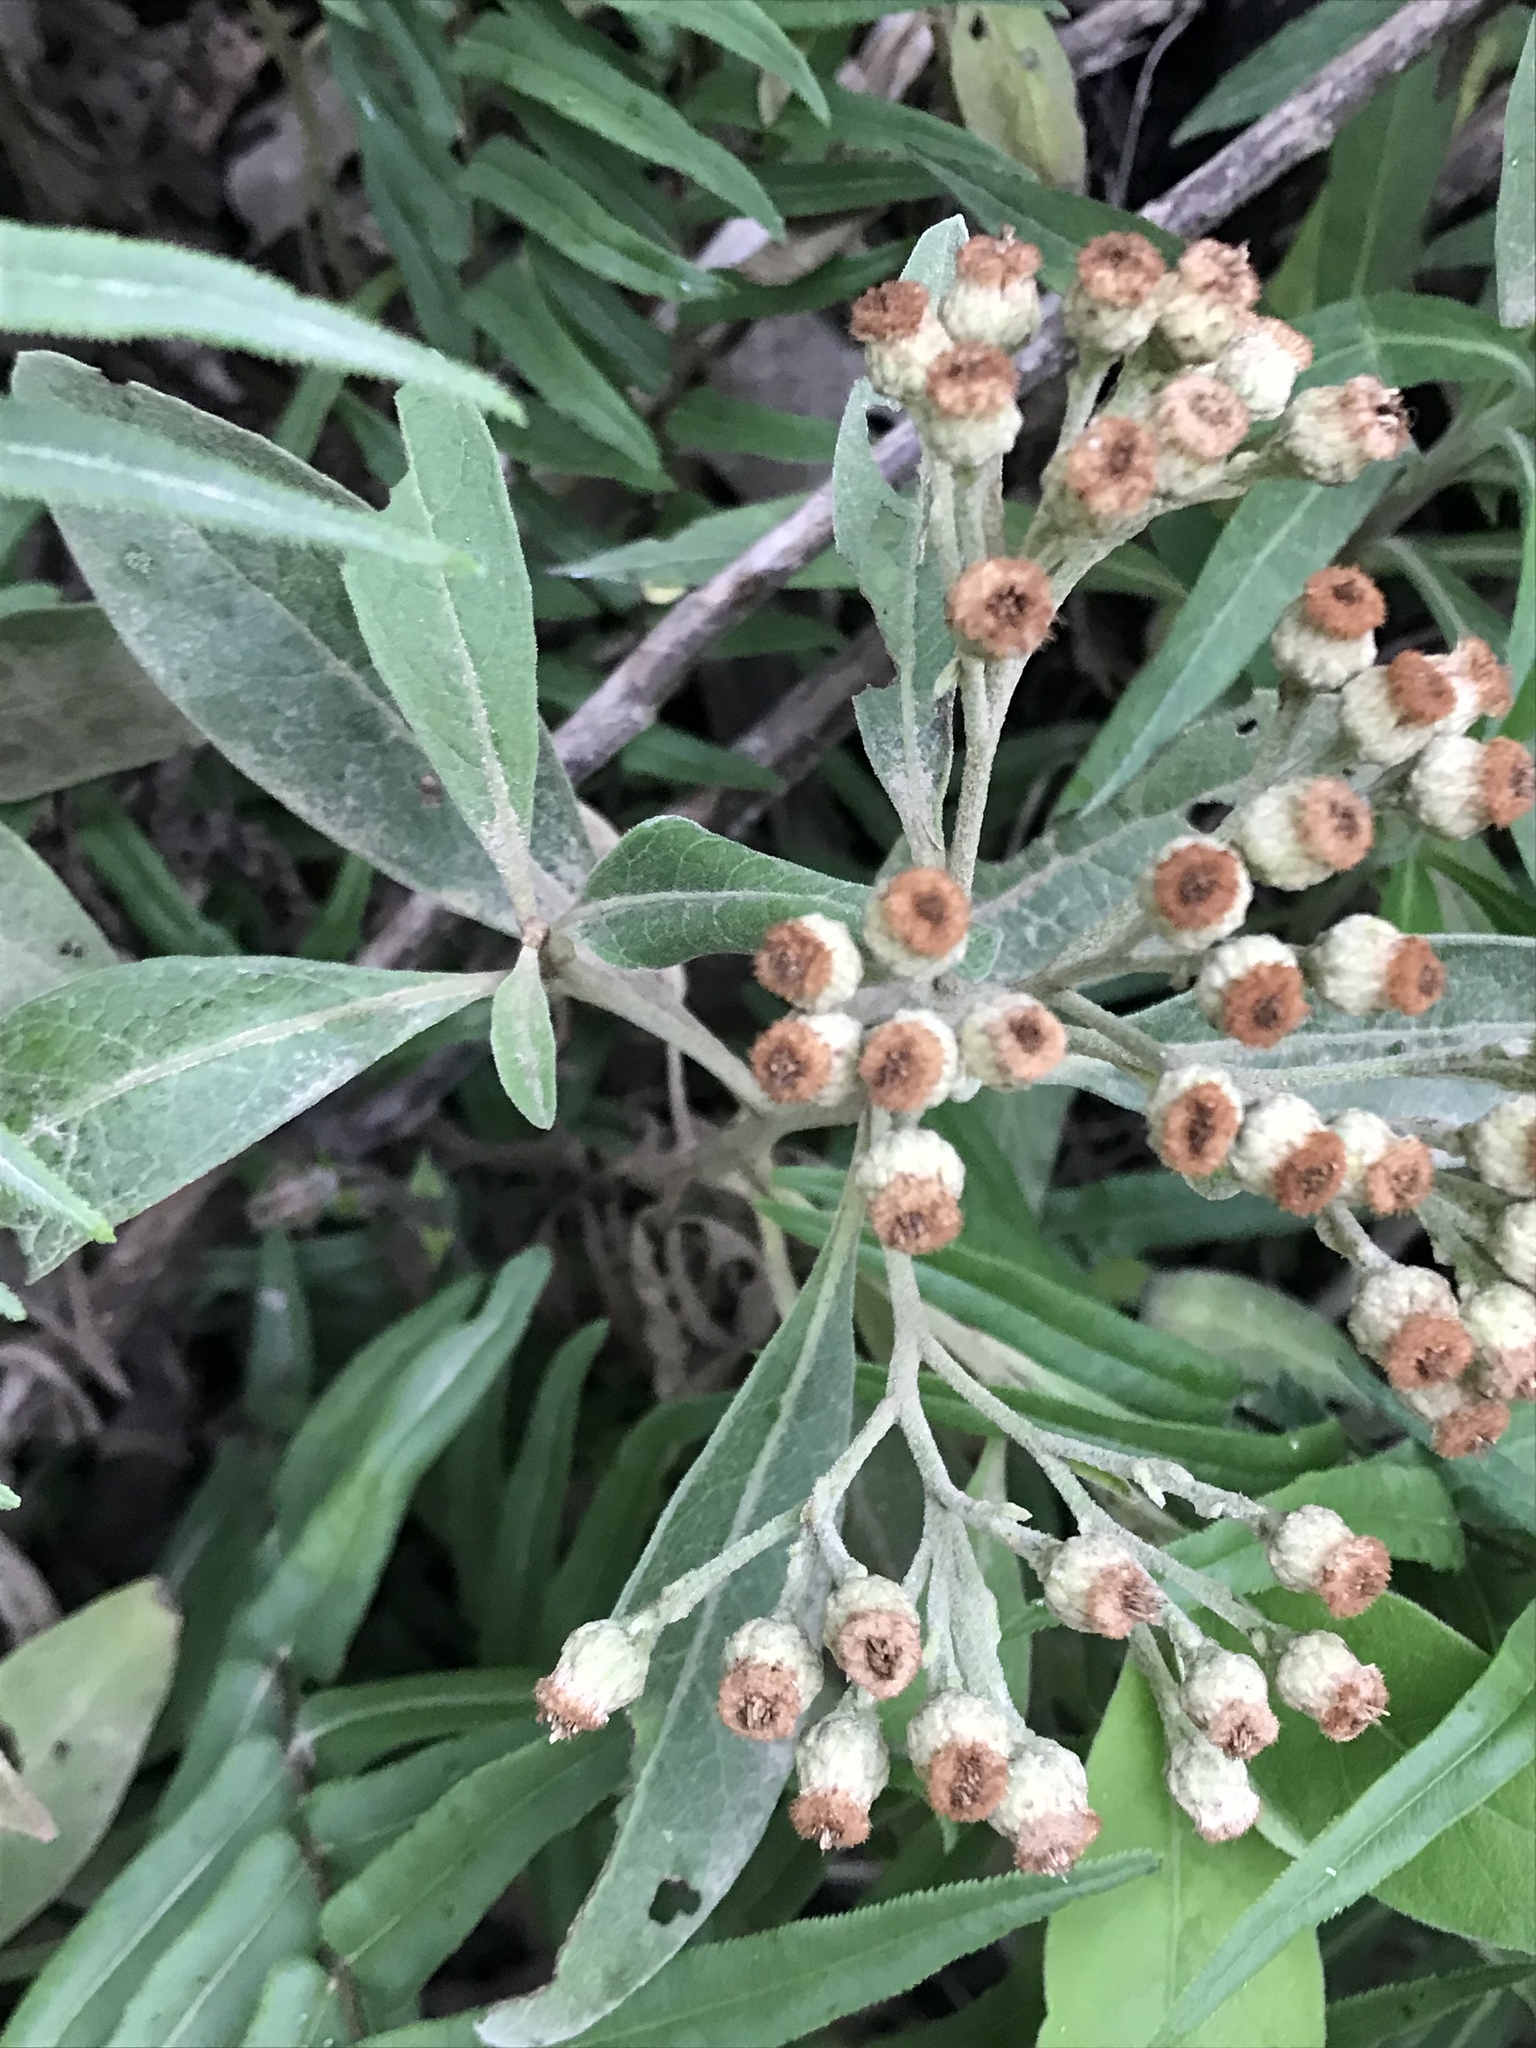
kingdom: Plantae
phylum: Tracheophyta
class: Magnoliopsida
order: Asterales
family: Asteraceae
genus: Pluchea
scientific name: Pluchea carolinensis
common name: Marsh fleabane
